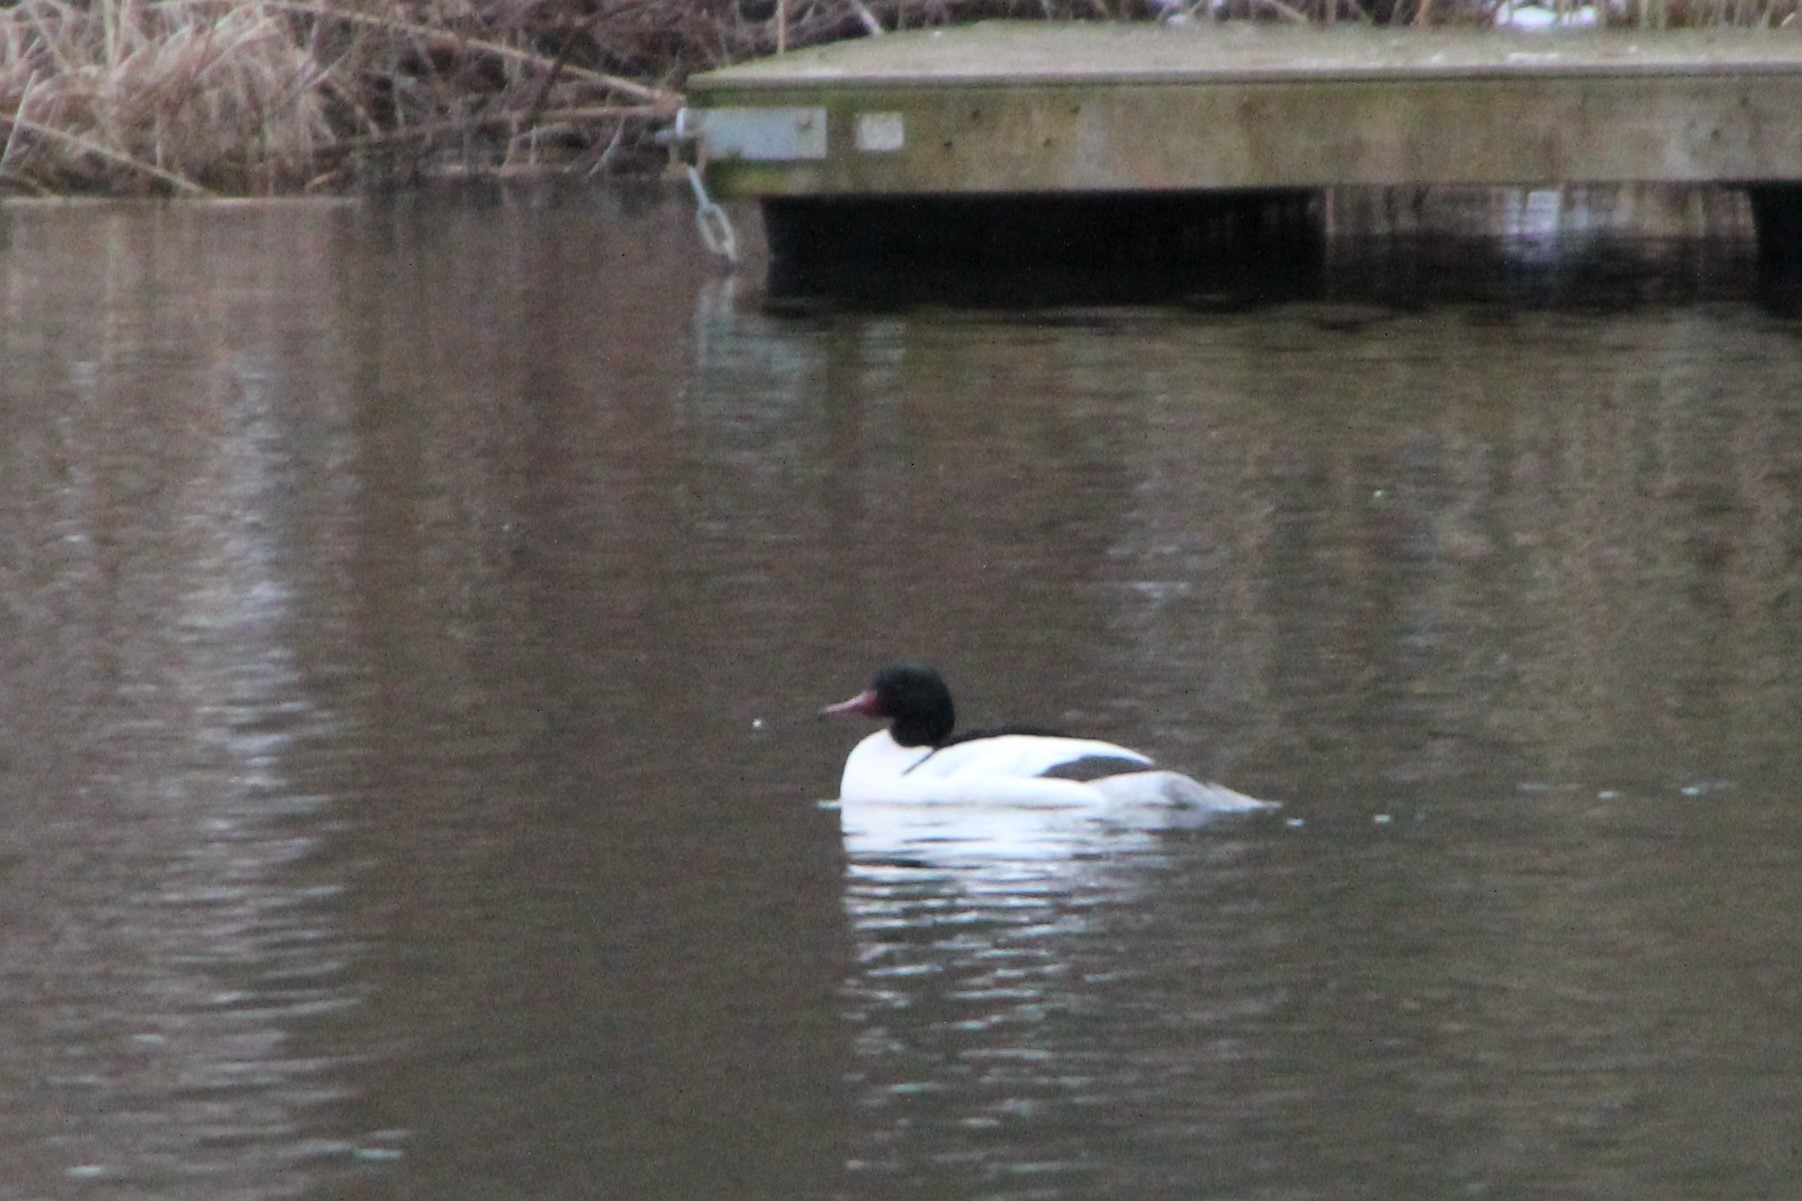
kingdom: Animalia
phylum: Chordata
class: Aves
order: Anseriformes
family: Anatidae
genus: Mergus
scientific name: Mergus merganser
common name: Common merganser
